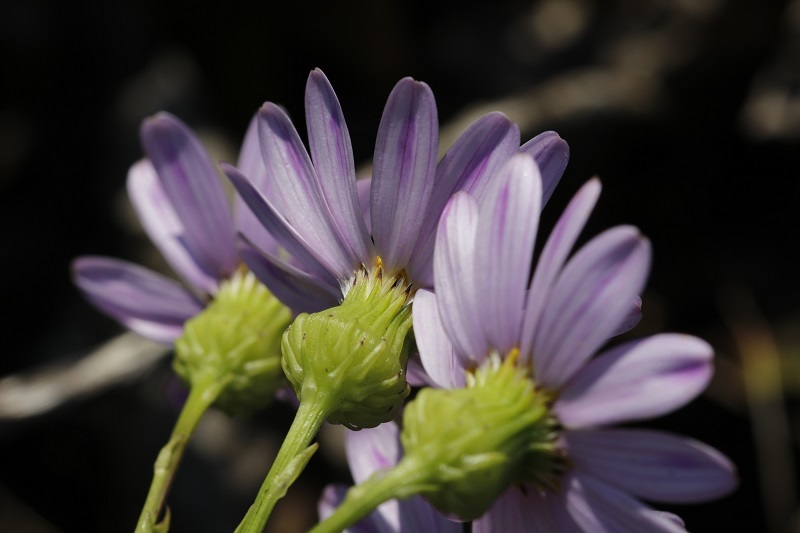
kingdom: Plantae
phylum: Tracheophyta
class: Magnoliopsida
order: Asterales
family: Asteraceae
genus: Senecio
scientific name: Senecio glastifolius
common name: Woad-leaved ragwort
